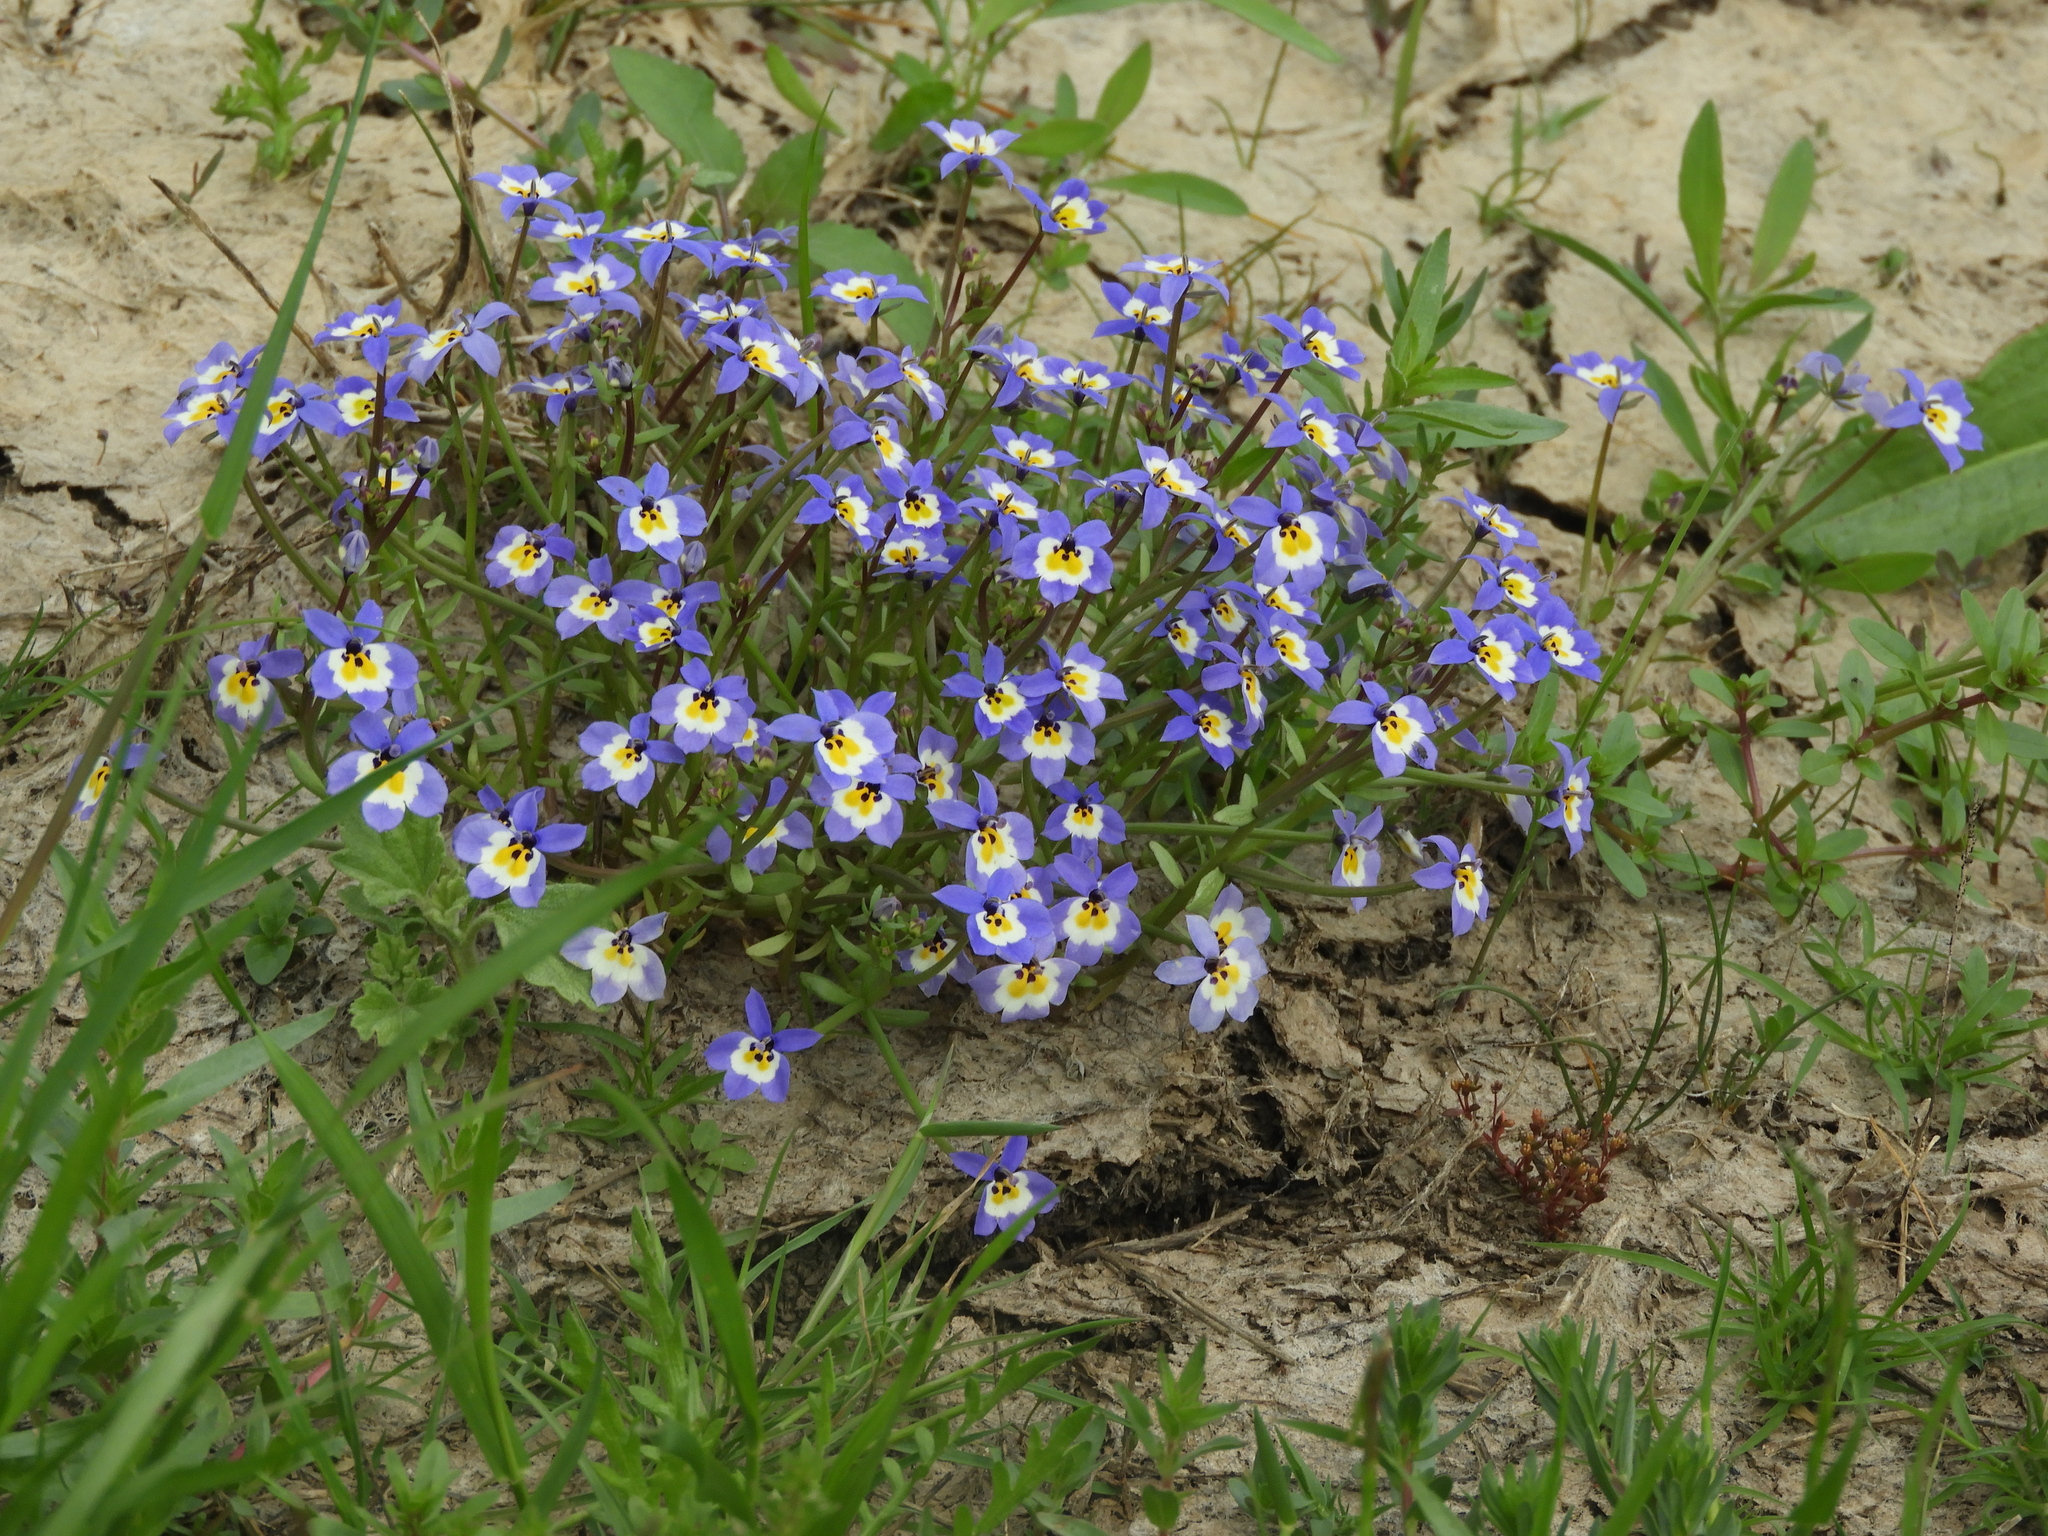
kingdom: Plantae
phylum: Tracheophyta
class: Magnoliopsida
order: Asterales
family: Campanulaceae
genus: Downingia
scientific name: Downingia pulchella
